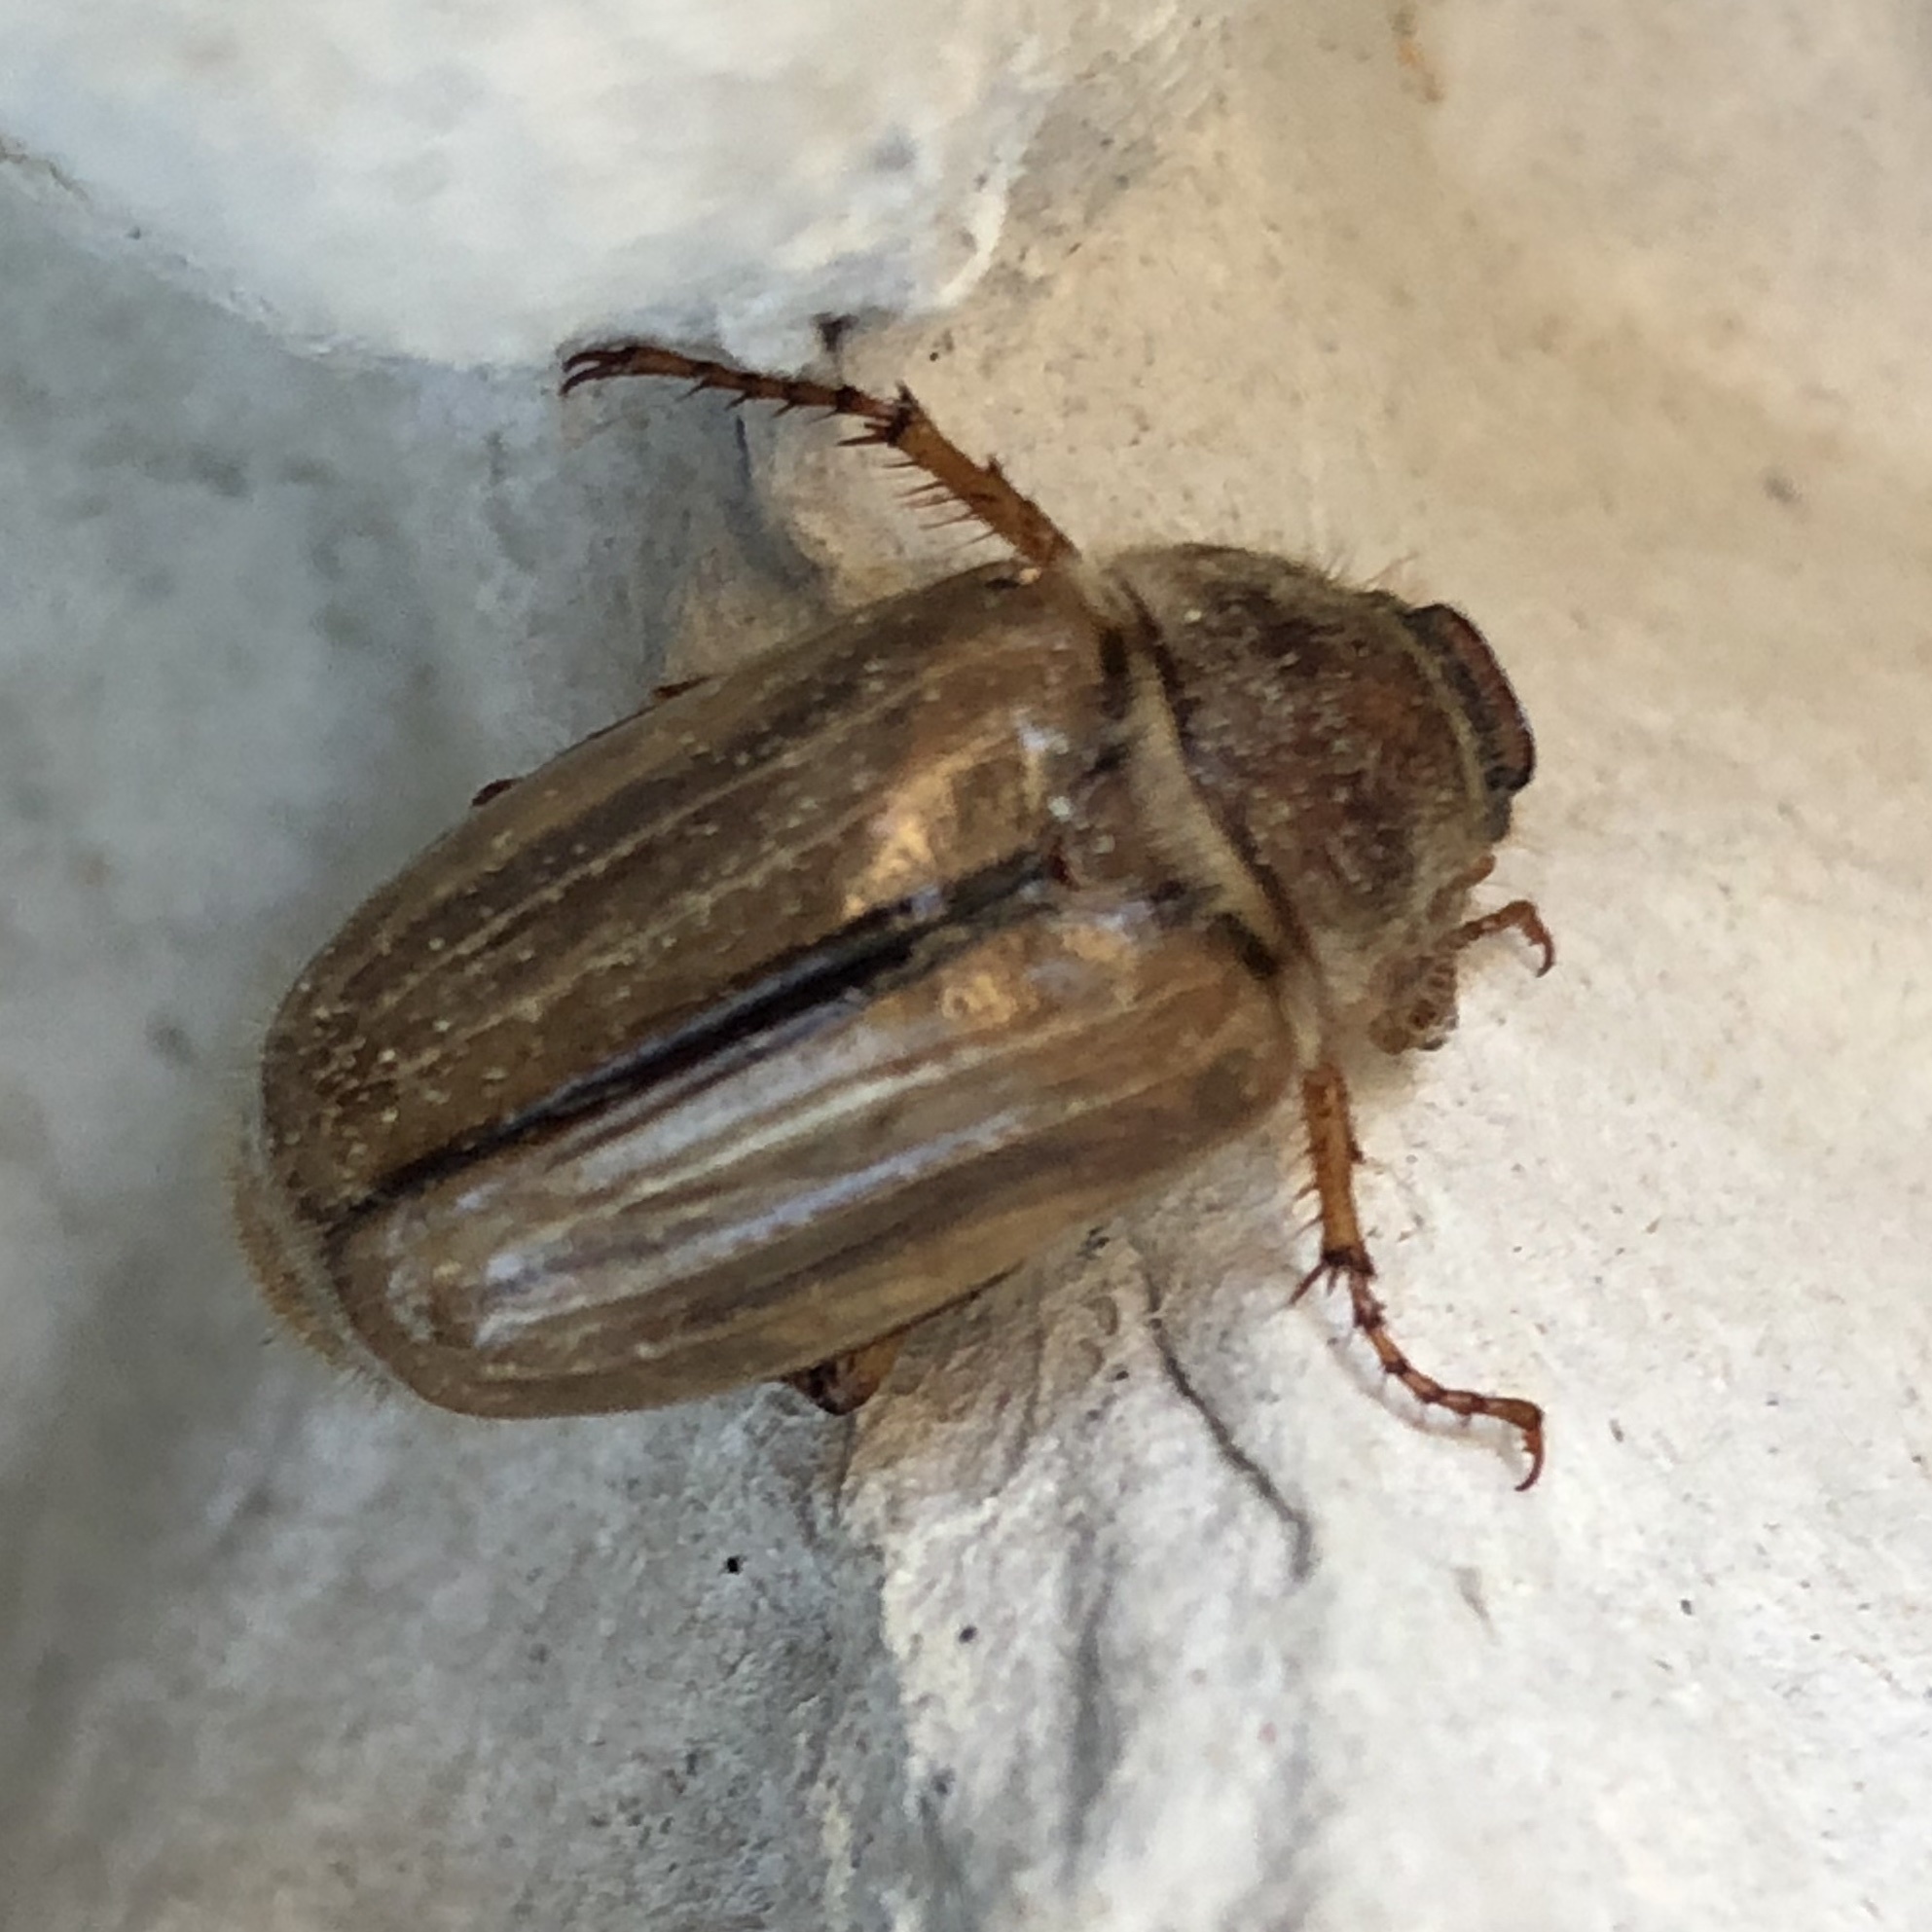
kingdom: Animalia
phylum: Arthropoda
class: Insecta
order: Coleoptera
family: Scarabaeidae
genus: Amphimallon
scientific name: Amphimallon solstitiale
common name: Summer chafer
